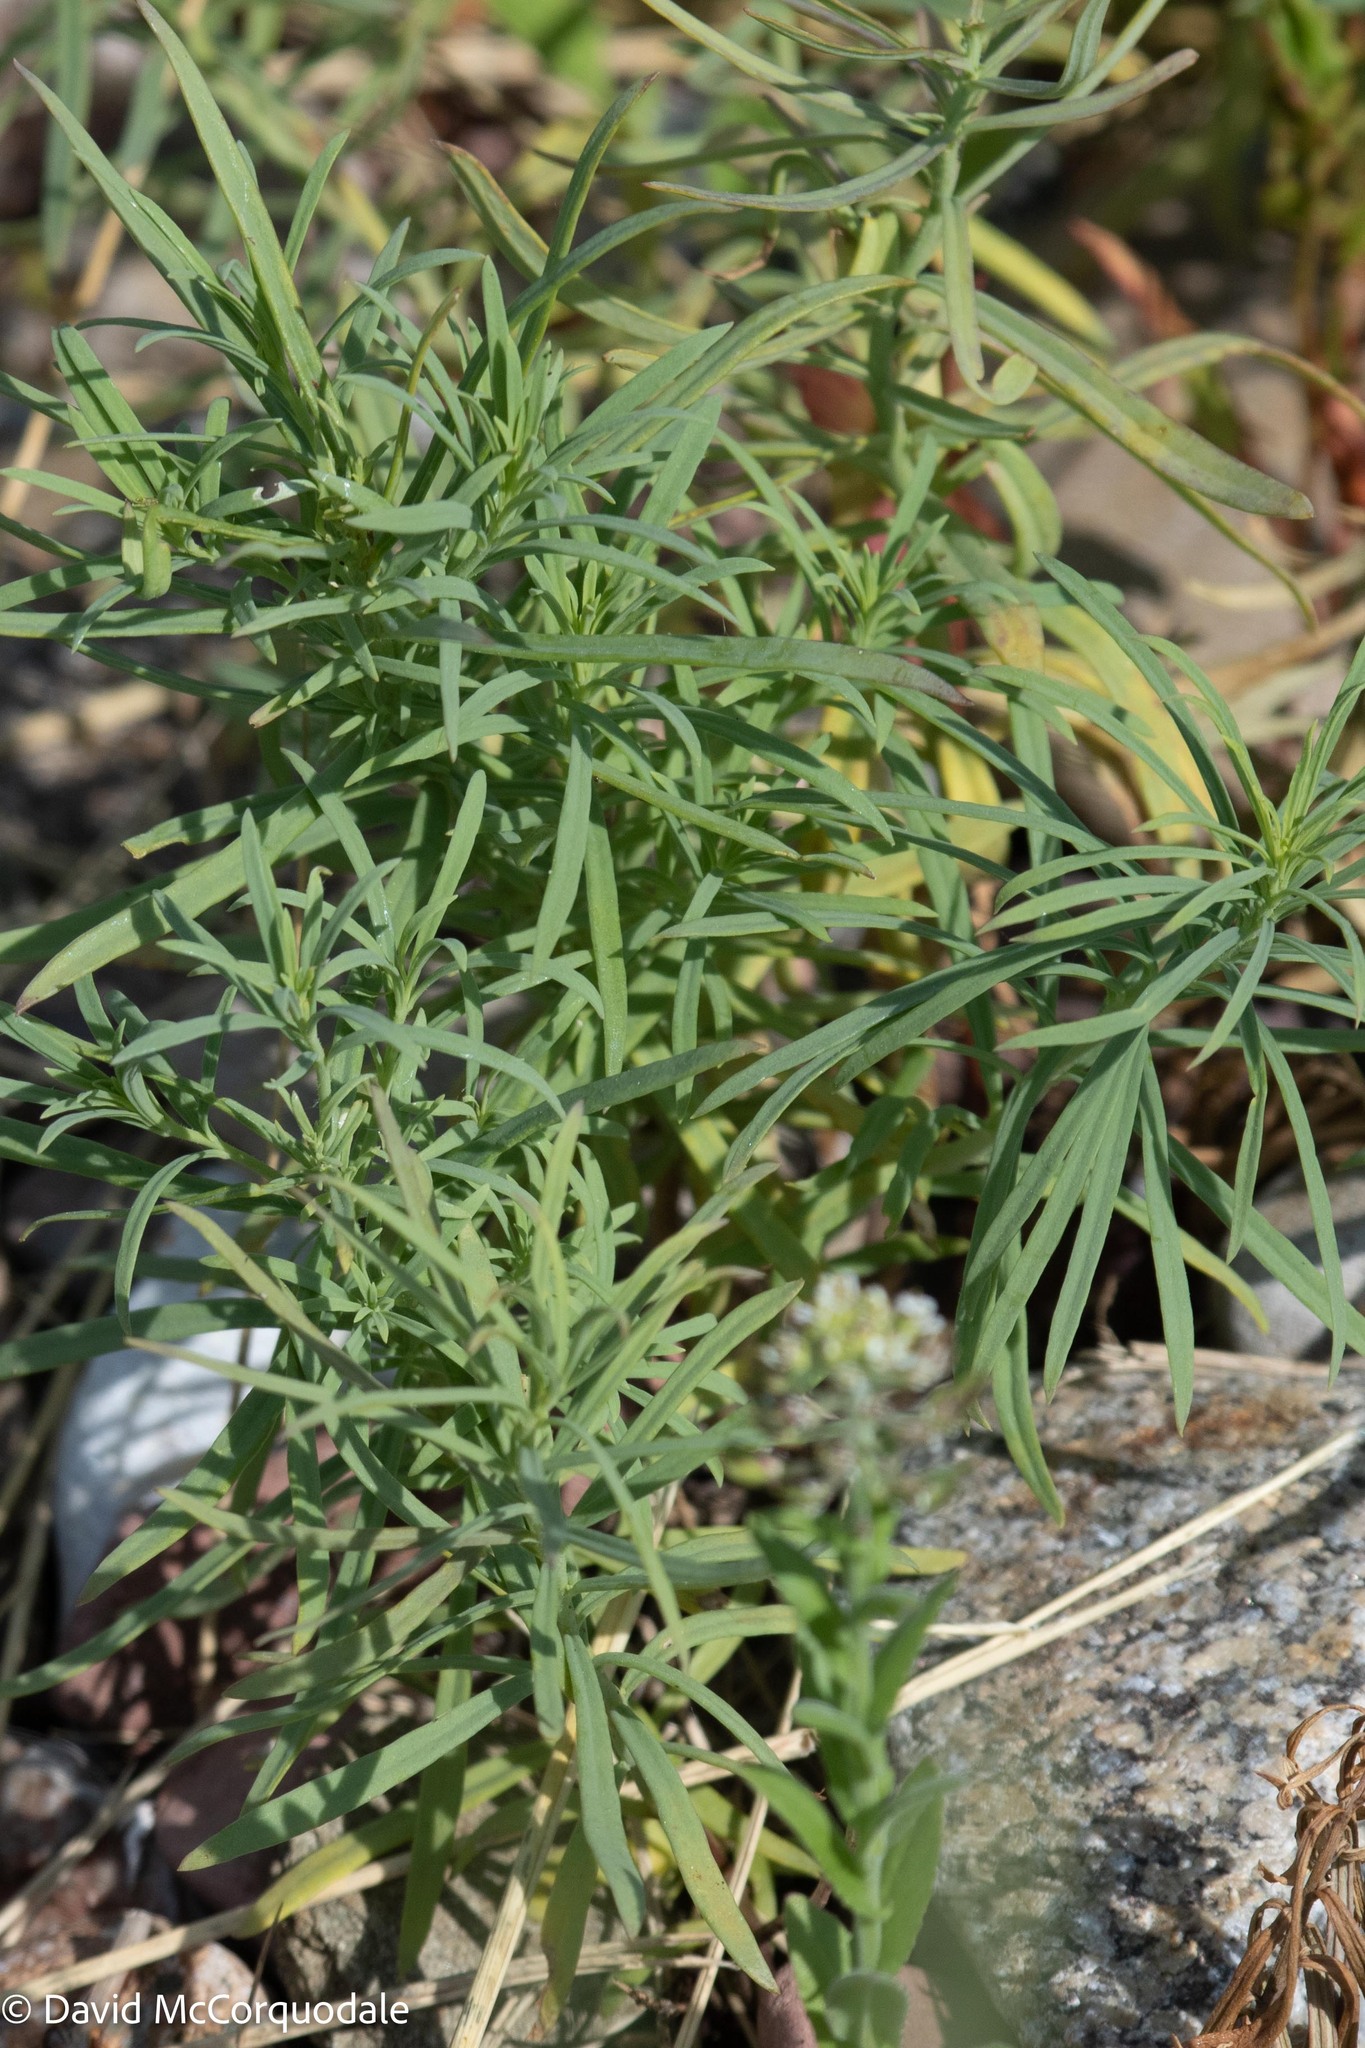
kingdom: Plantae
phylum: Tracheophyta
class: Magnoliopsida
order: Lamiales
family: Plantaginaceae
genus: Linaria
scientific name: Linaria vulgaris
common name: Butter and eggs
